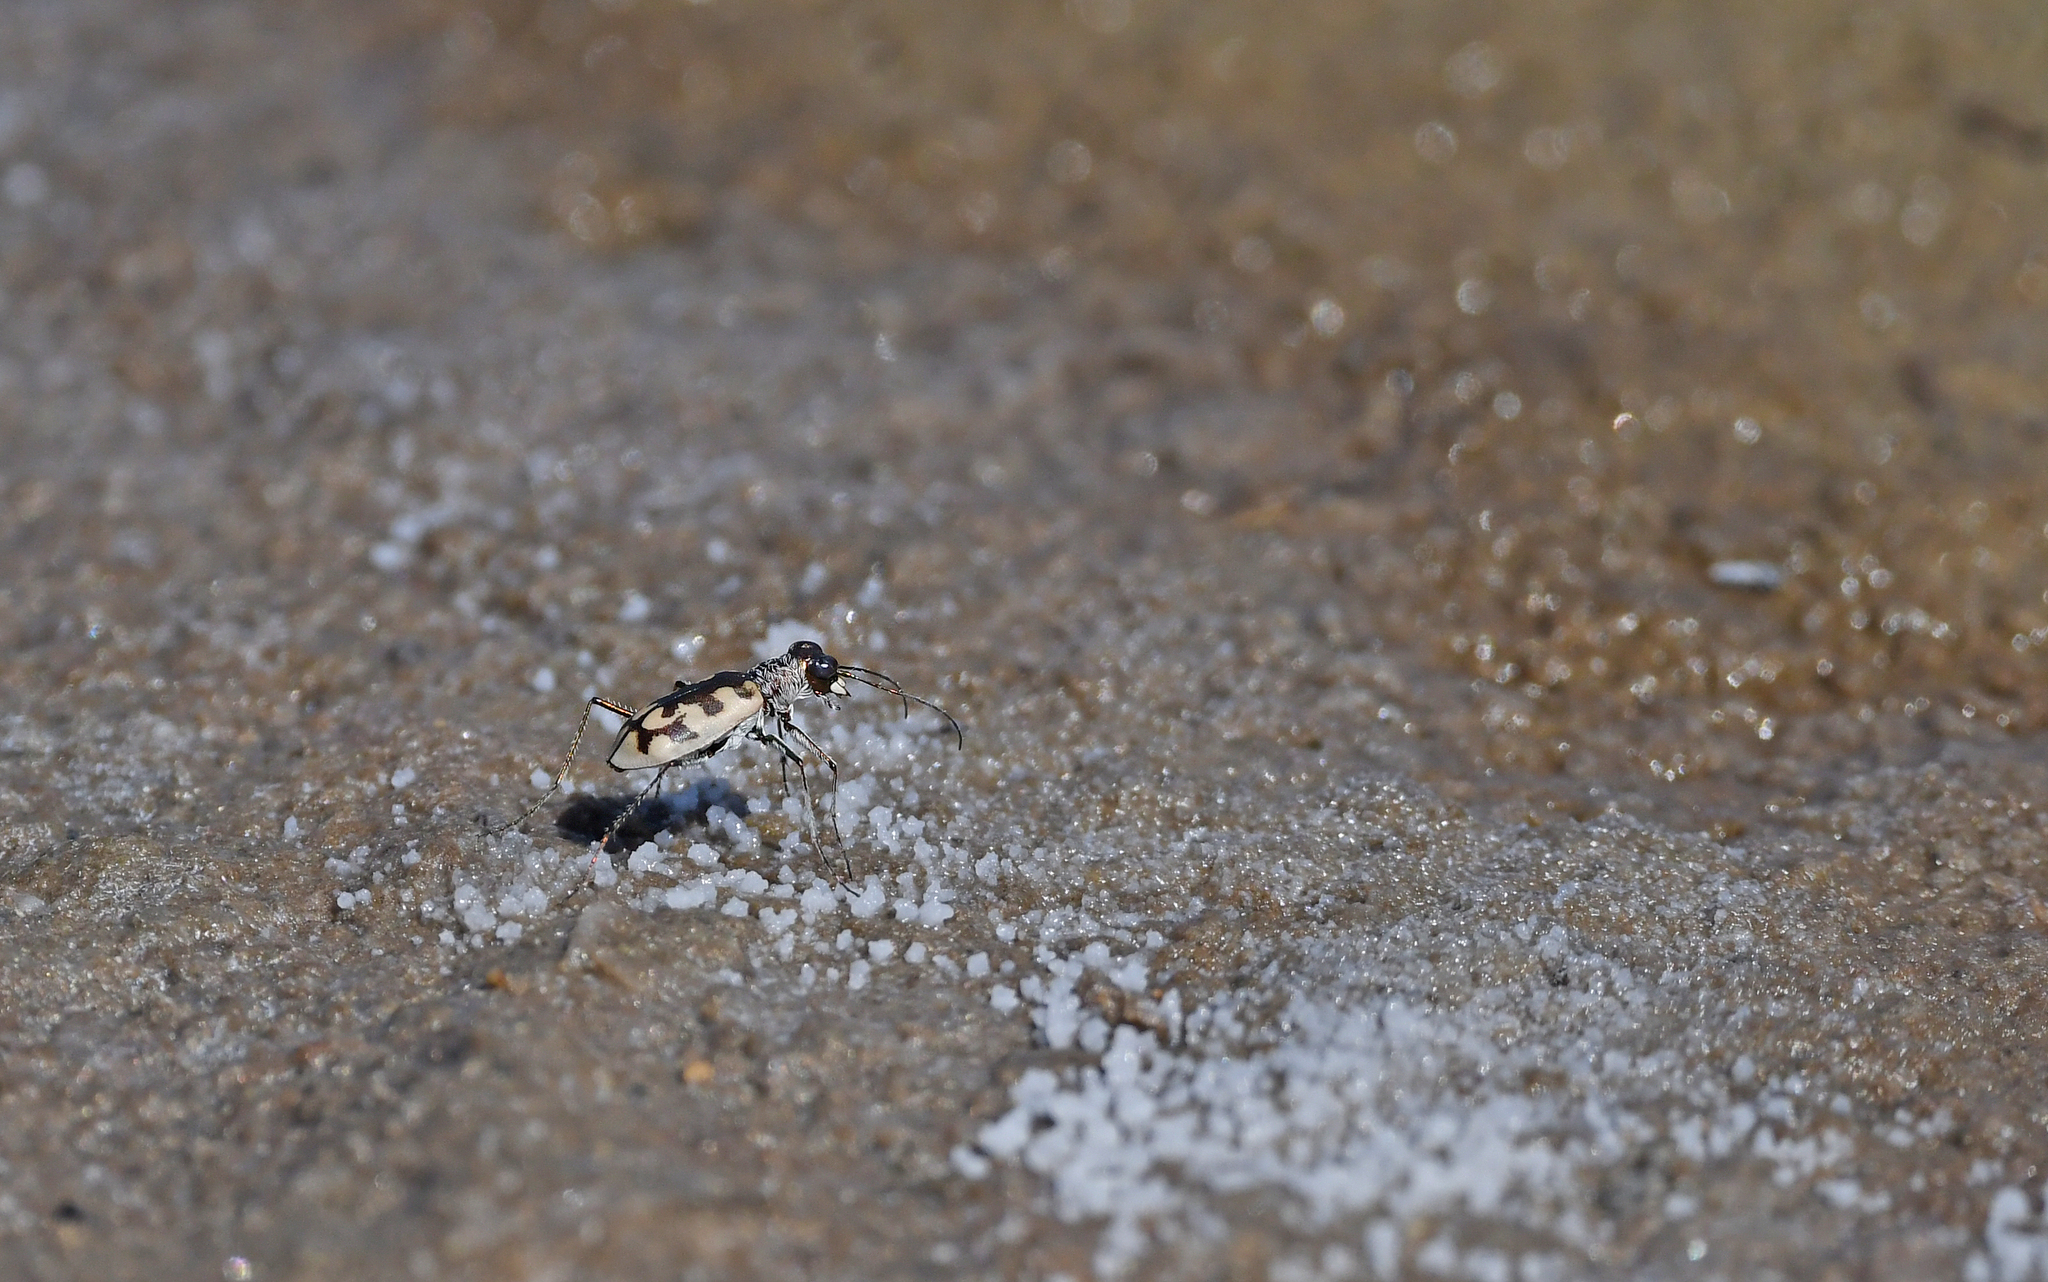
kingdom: Animalia
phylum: Arthropoda
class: Insecta
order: Coleoptera
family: Carabidae
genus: Cephalota
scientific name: Cephalota circumdata
